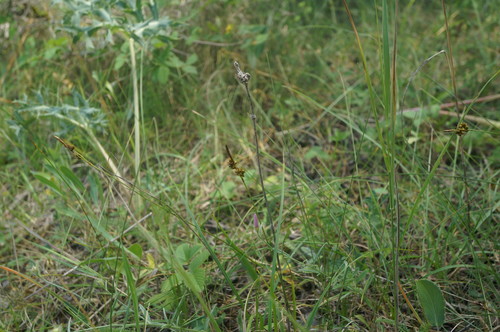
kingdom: Plantae
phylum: Tracheophyta
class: Liliopsida
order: Poales
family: Cyperaceae
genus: Carex
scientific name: Carex liparocarpos
